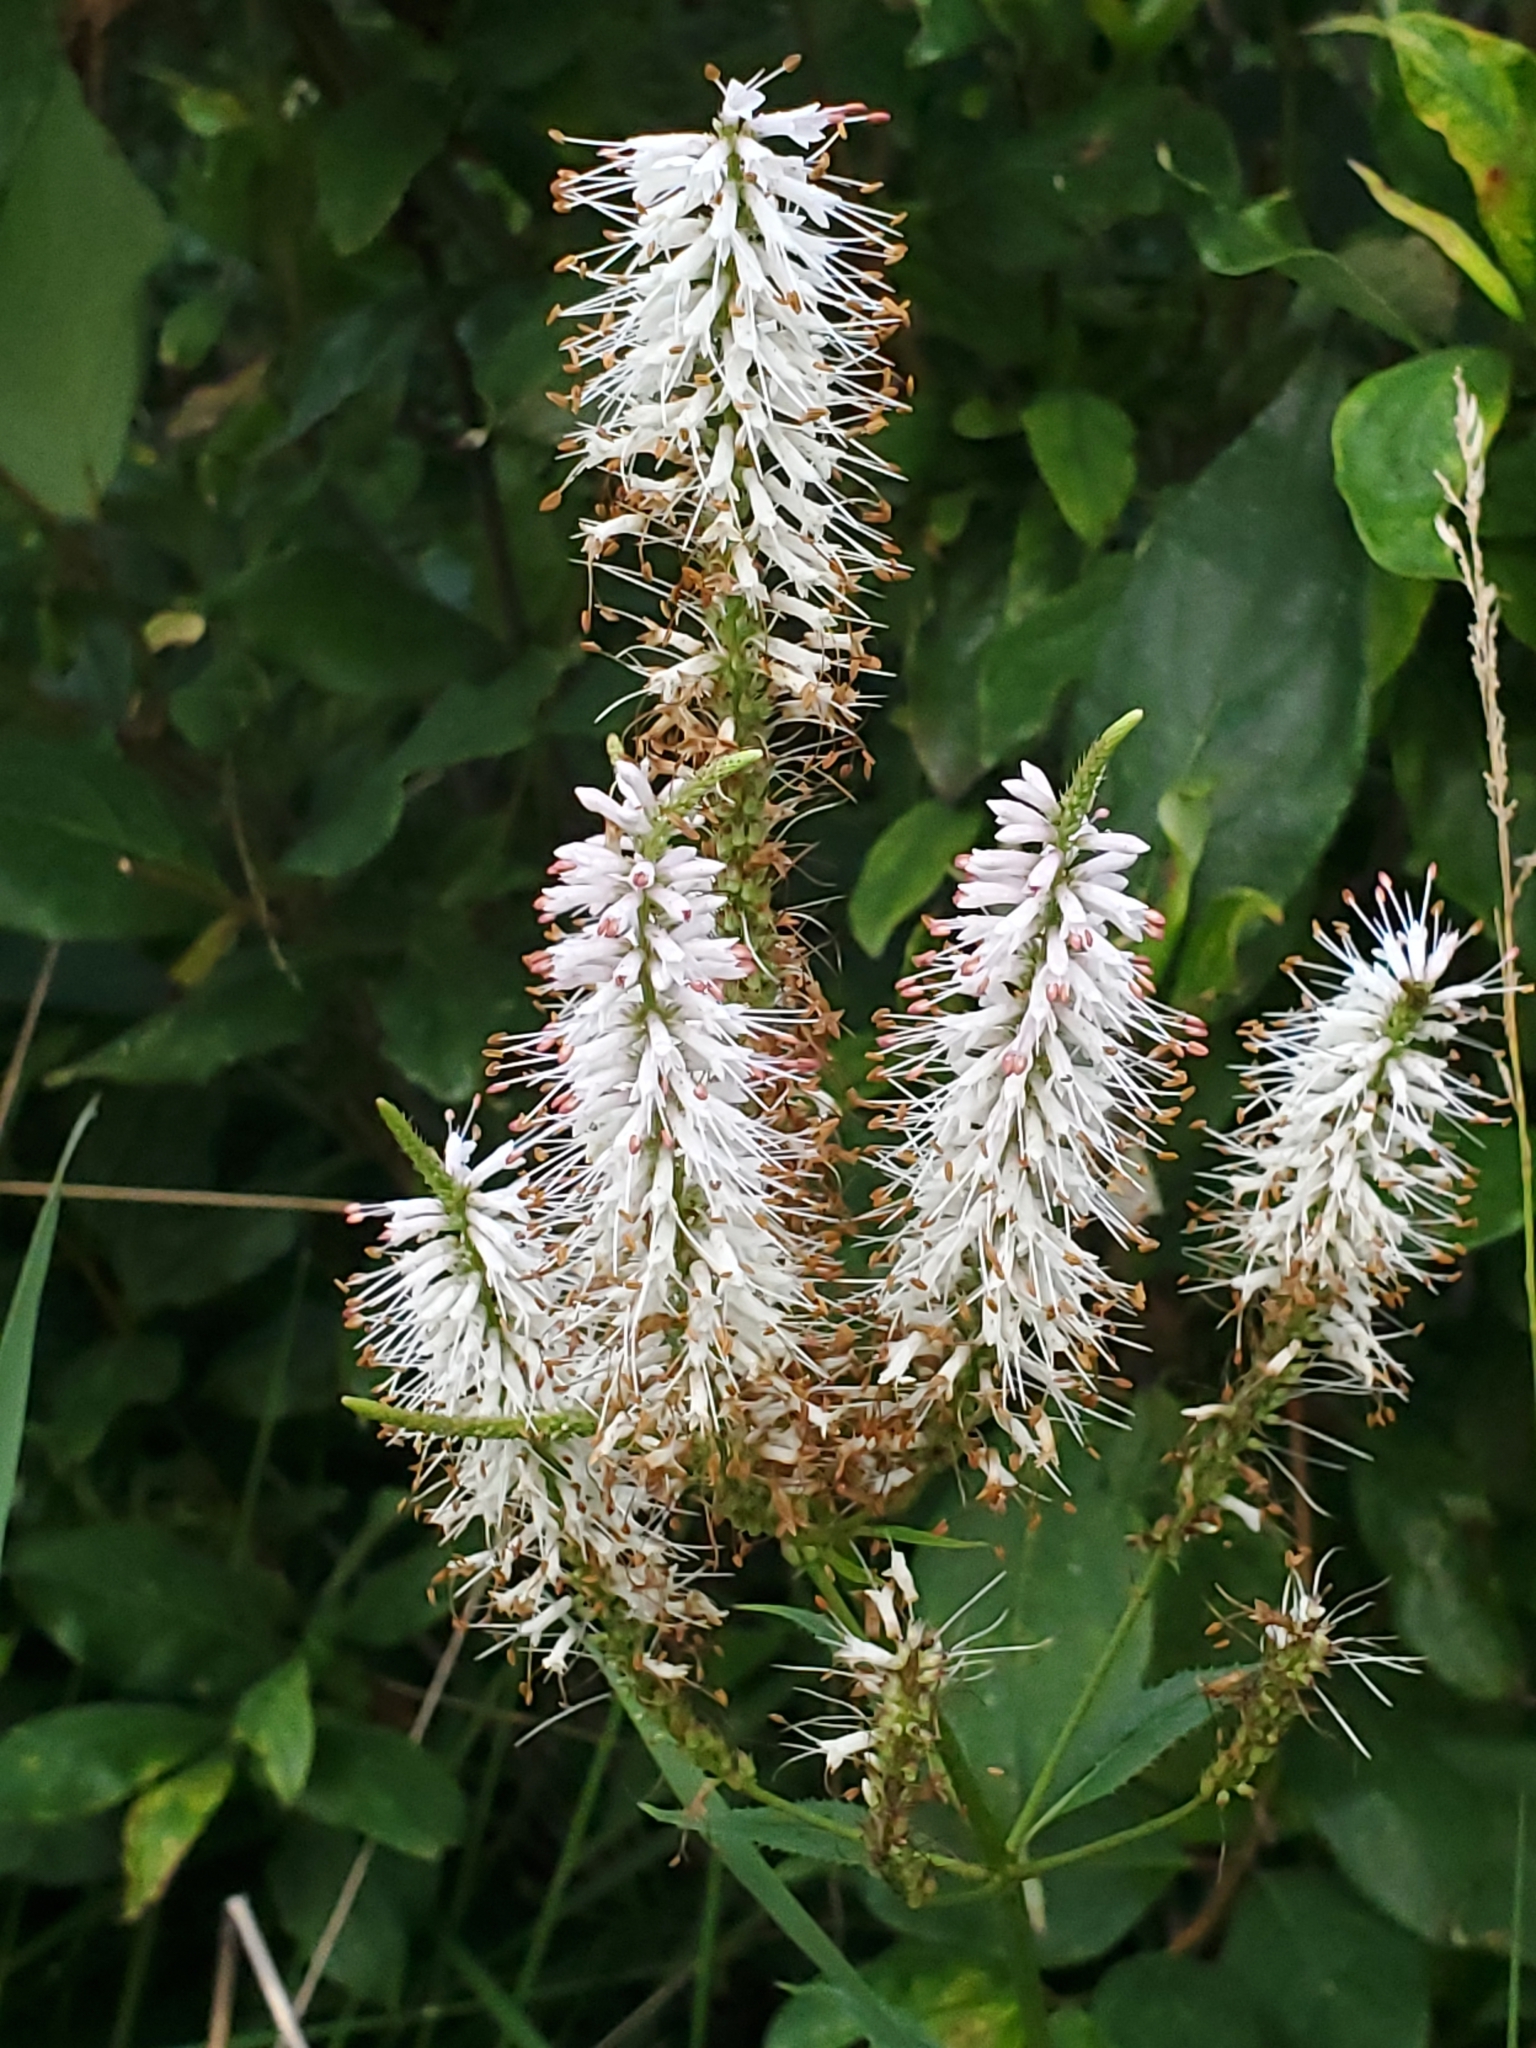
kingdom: Plantae
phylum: Tracheophyta
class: Magnoliopsida
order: Lamiales
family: Plantaginaceae
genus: Veronicastrum
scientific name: Veronicastrum virginicum
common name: Blackroot
